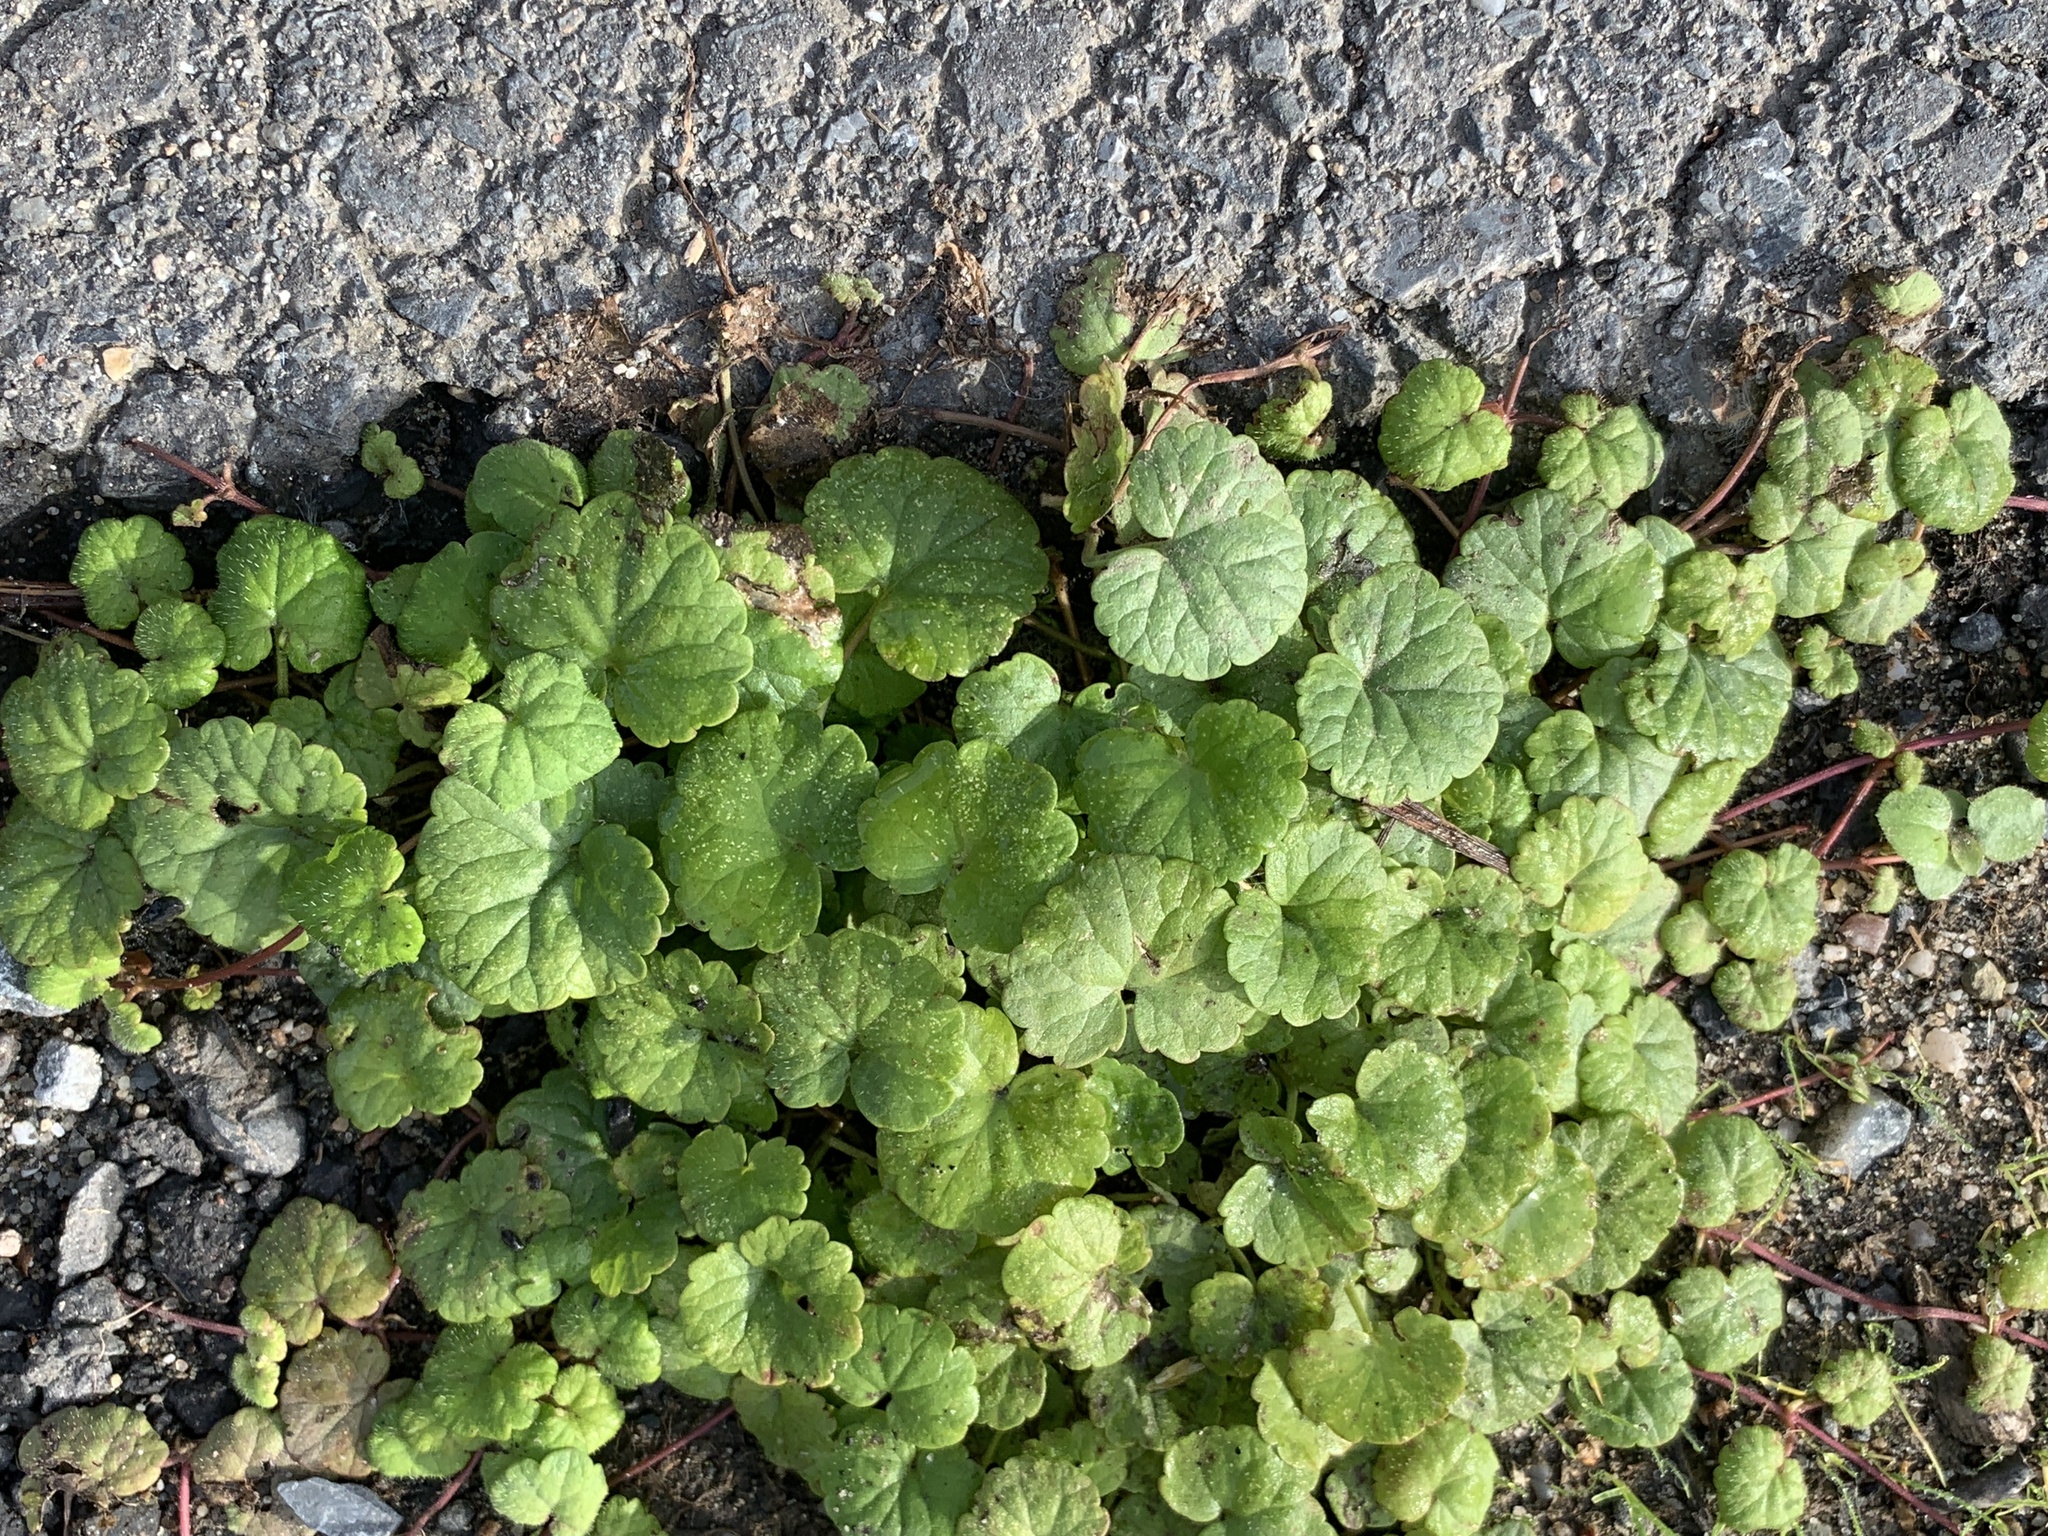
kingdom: Plantae
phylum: Tracheophyta
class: Magnoliopsida
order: Lamiales
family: Lamiaceae
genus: Glechoma
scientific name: Glechoma hederacea
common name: Ground ivy
